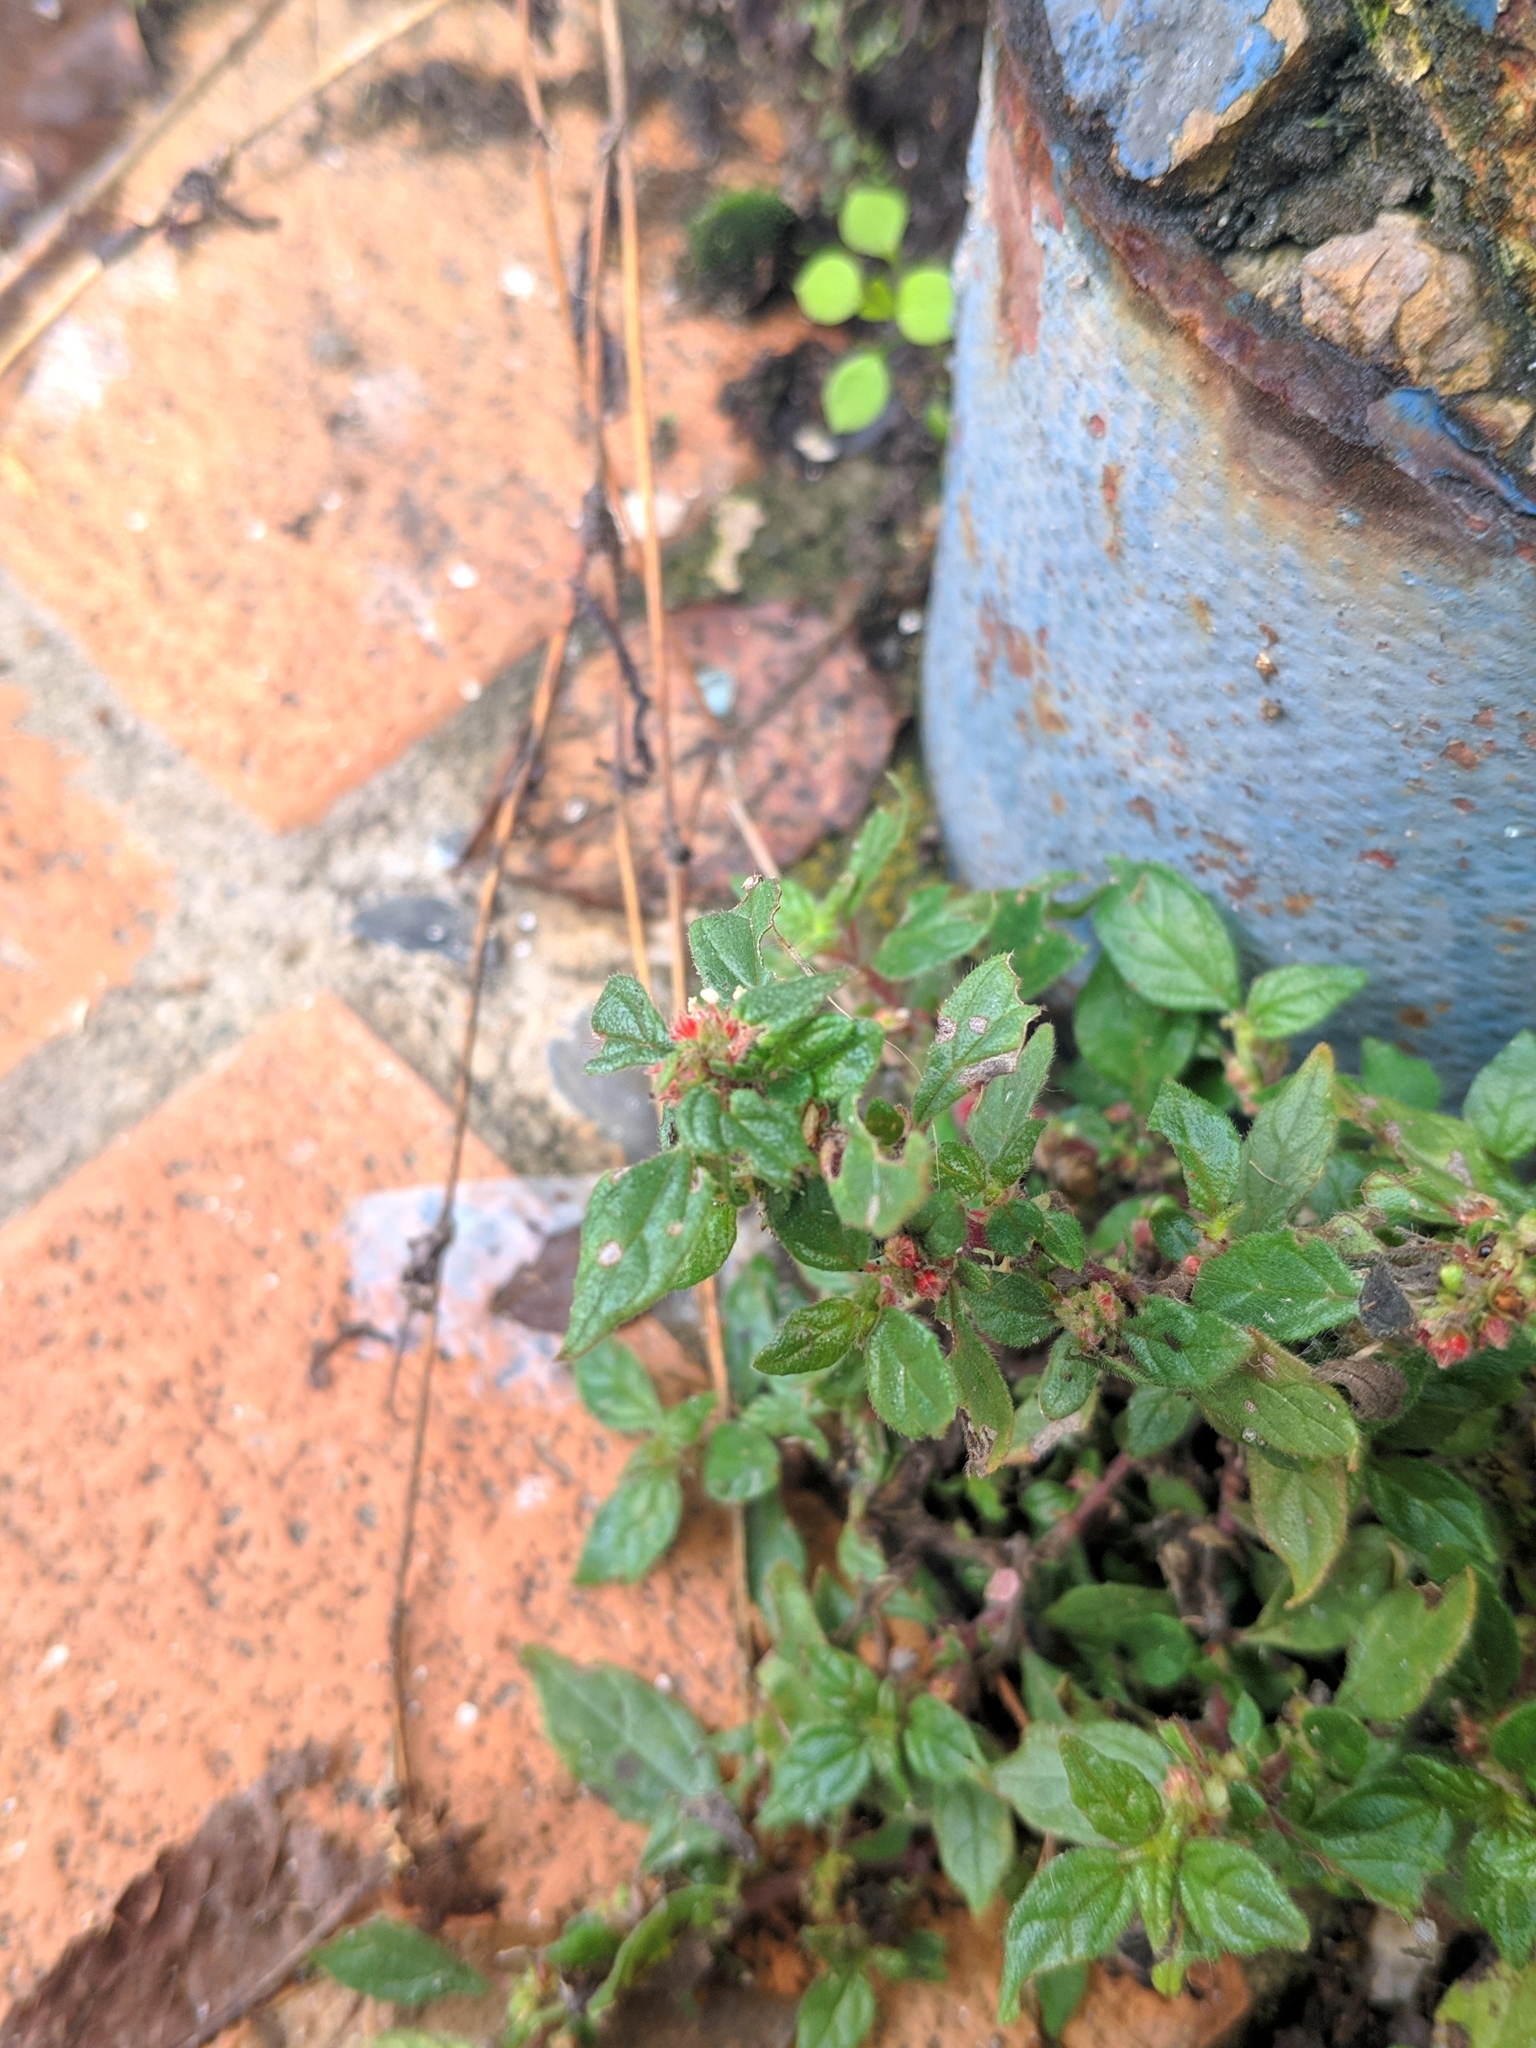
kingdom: Plantae
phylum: Tracheophyta
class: Magnoliopsida
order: Rosales
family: Urticaceae
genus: Parietaria
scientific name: Parietaria judaica
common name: Pellitory-of-the-wall
